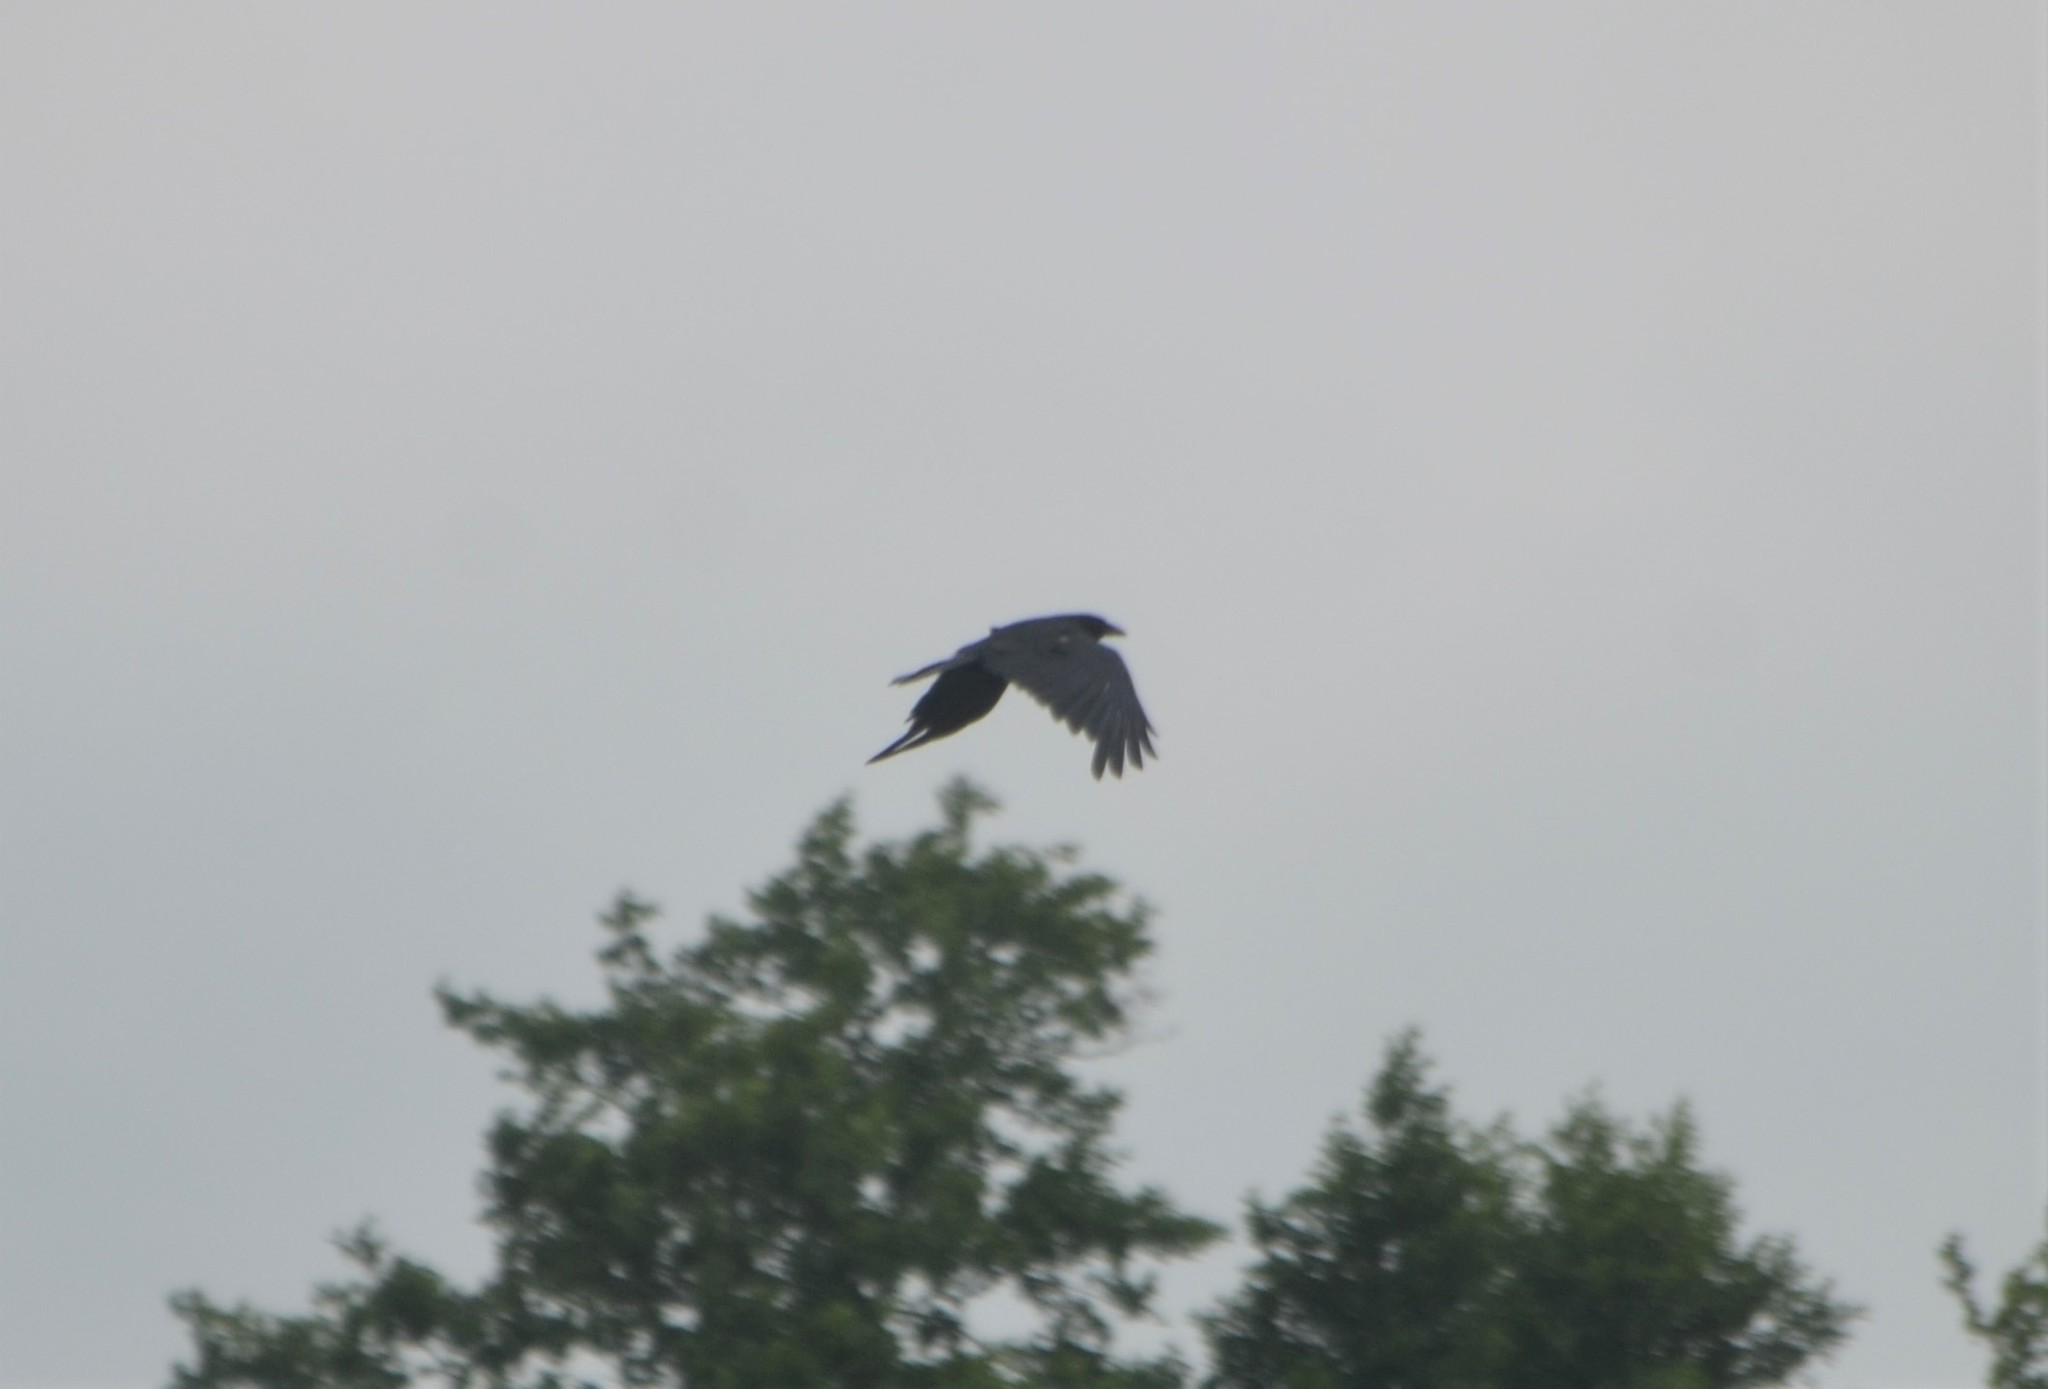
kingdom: Animalia
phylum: Chordata
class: Aves
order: Passeriformes
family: Corvidae
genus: Corvus
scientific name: Corvus corone
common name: Carrion crow
